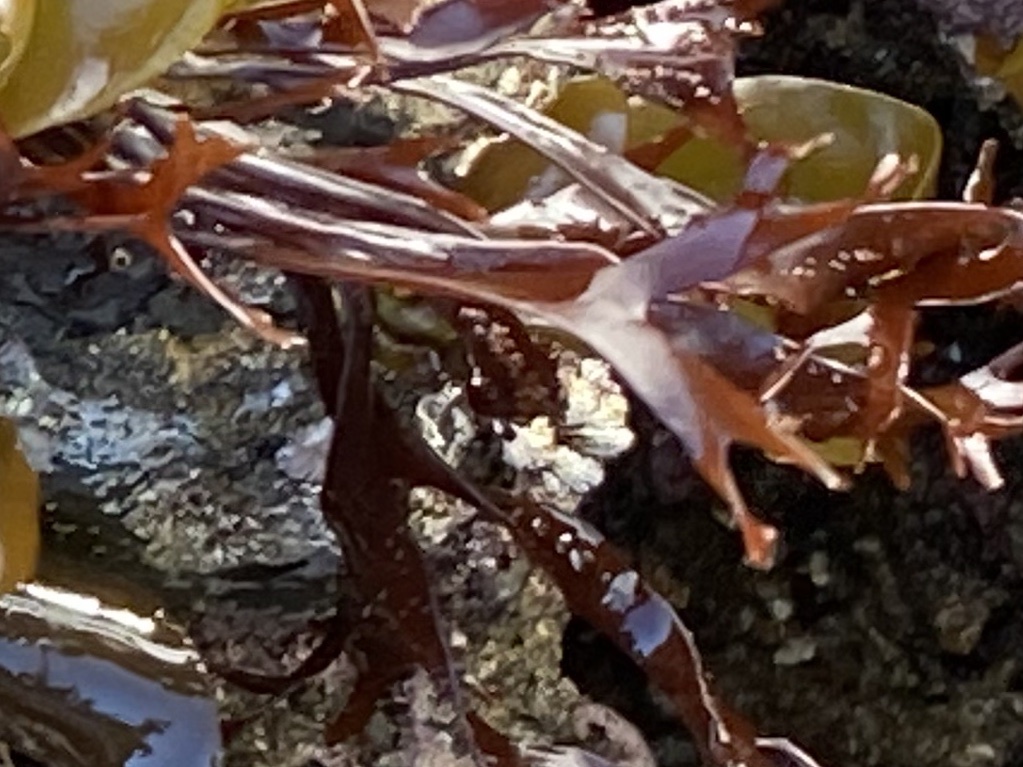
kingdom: Plantae
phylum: Rhodophyta
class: Florideophyceae
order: Gigartinales
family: Phyllophoraceae
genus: Mastocarpus
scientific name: Mastocarpus jardinii
